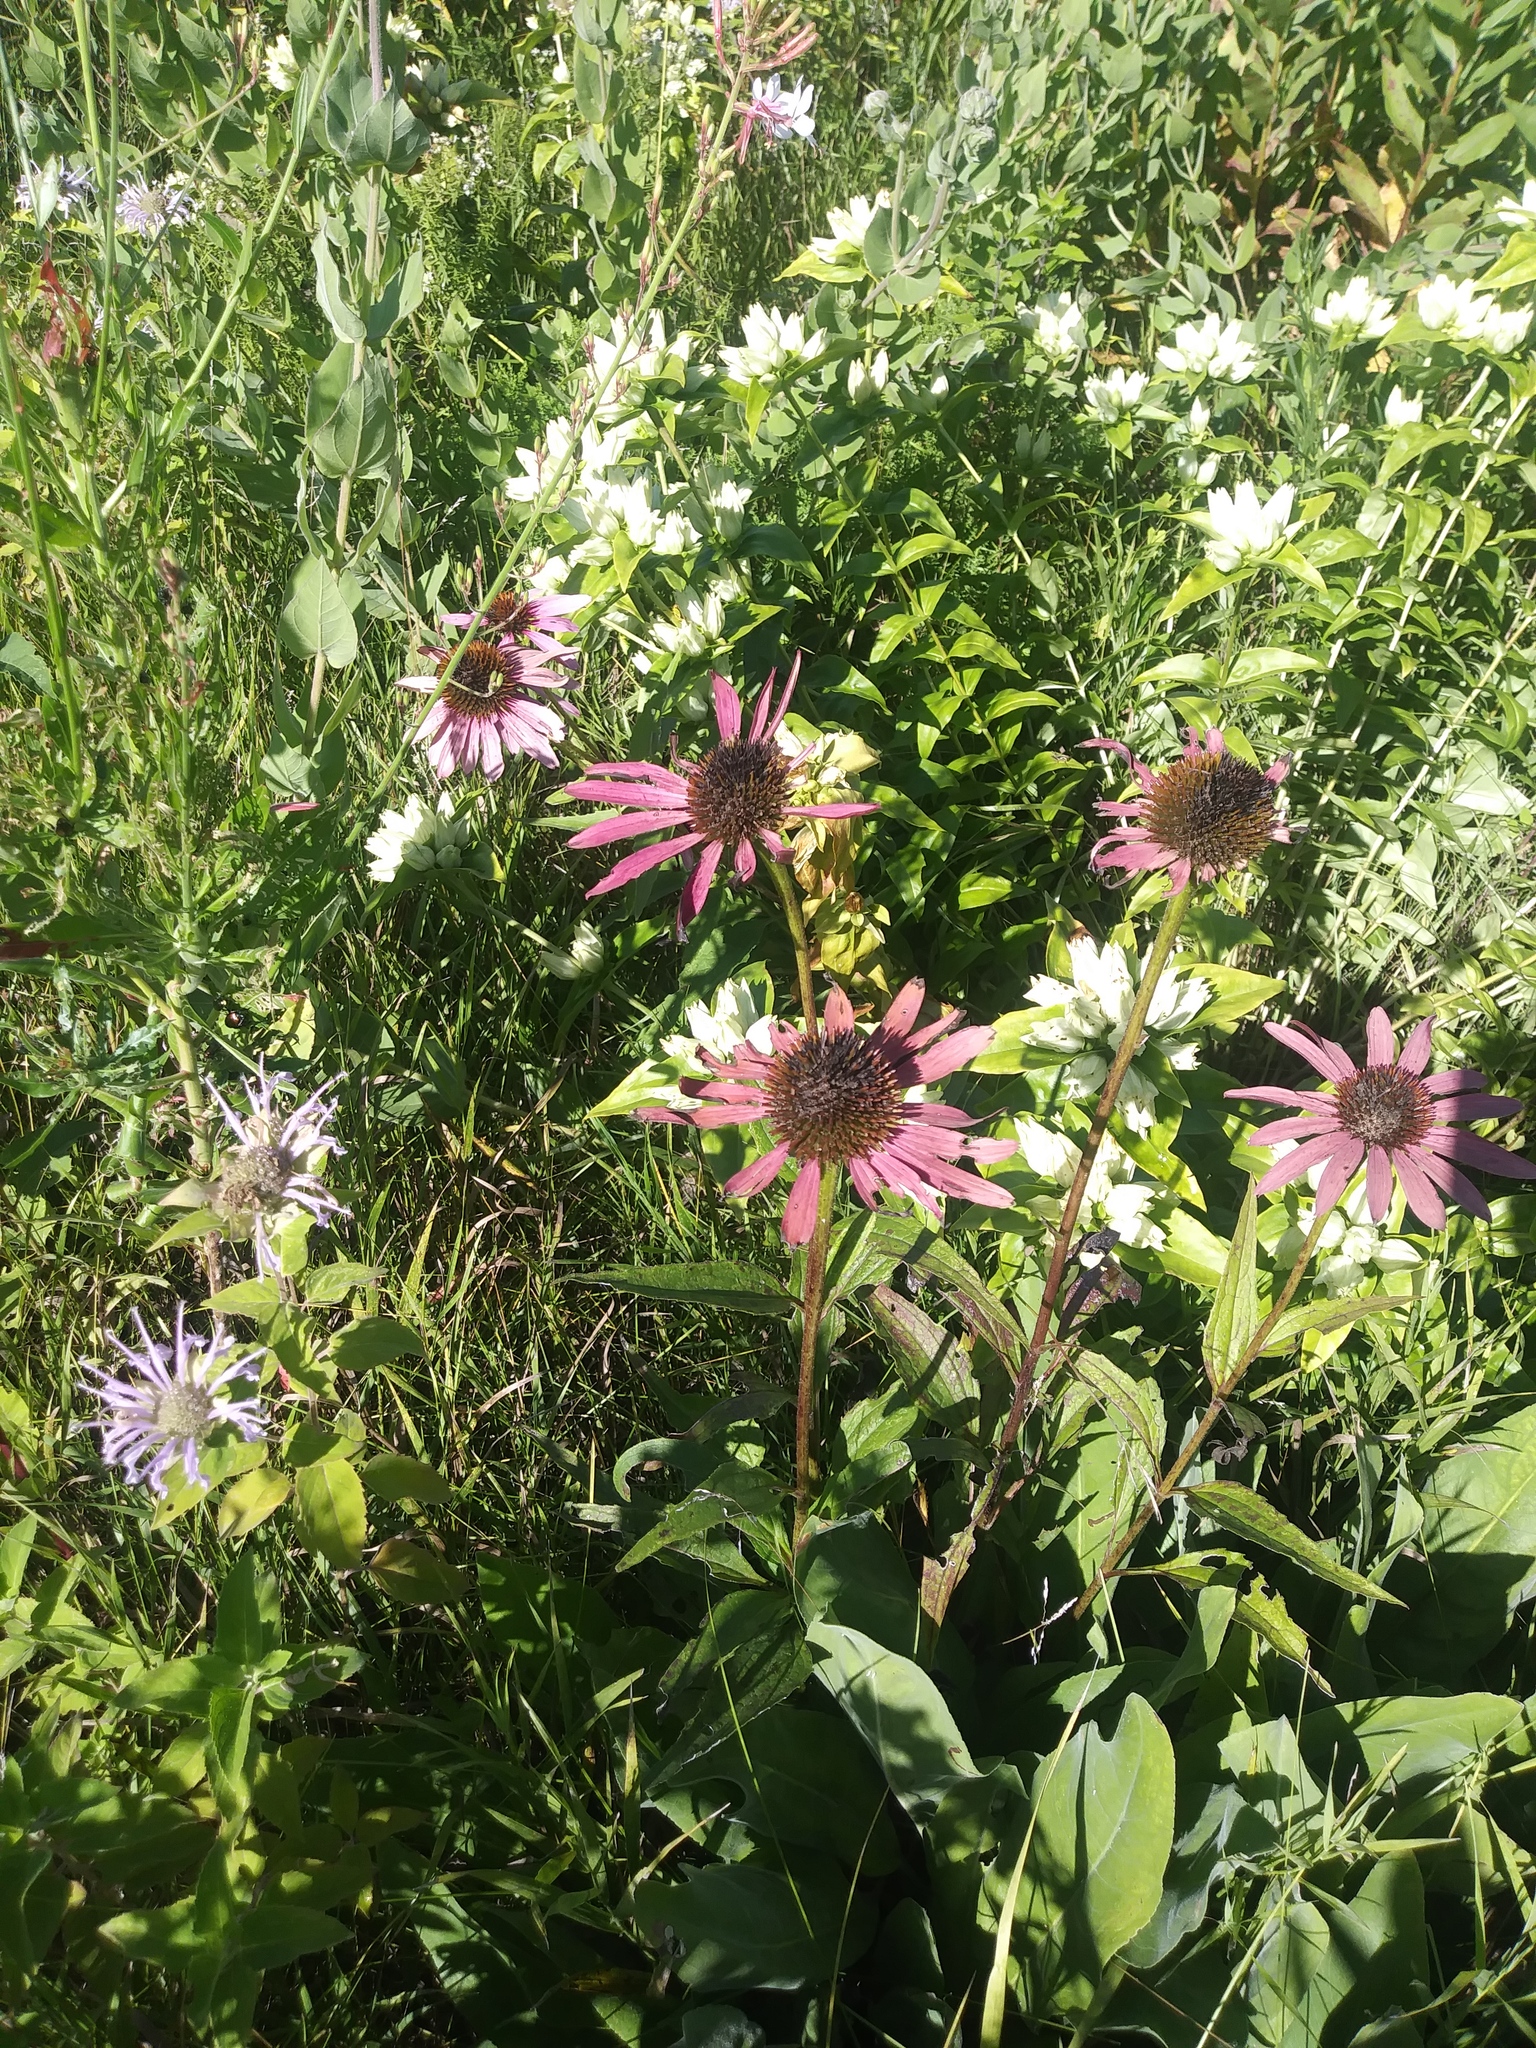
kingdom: Plantae
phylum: Tracheophyta
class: Magnoliopsida
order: Asterales
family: Asteraceae
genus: Echinacea
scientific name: Echinacea purpurea
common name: Broad-leaved purple coneflower
